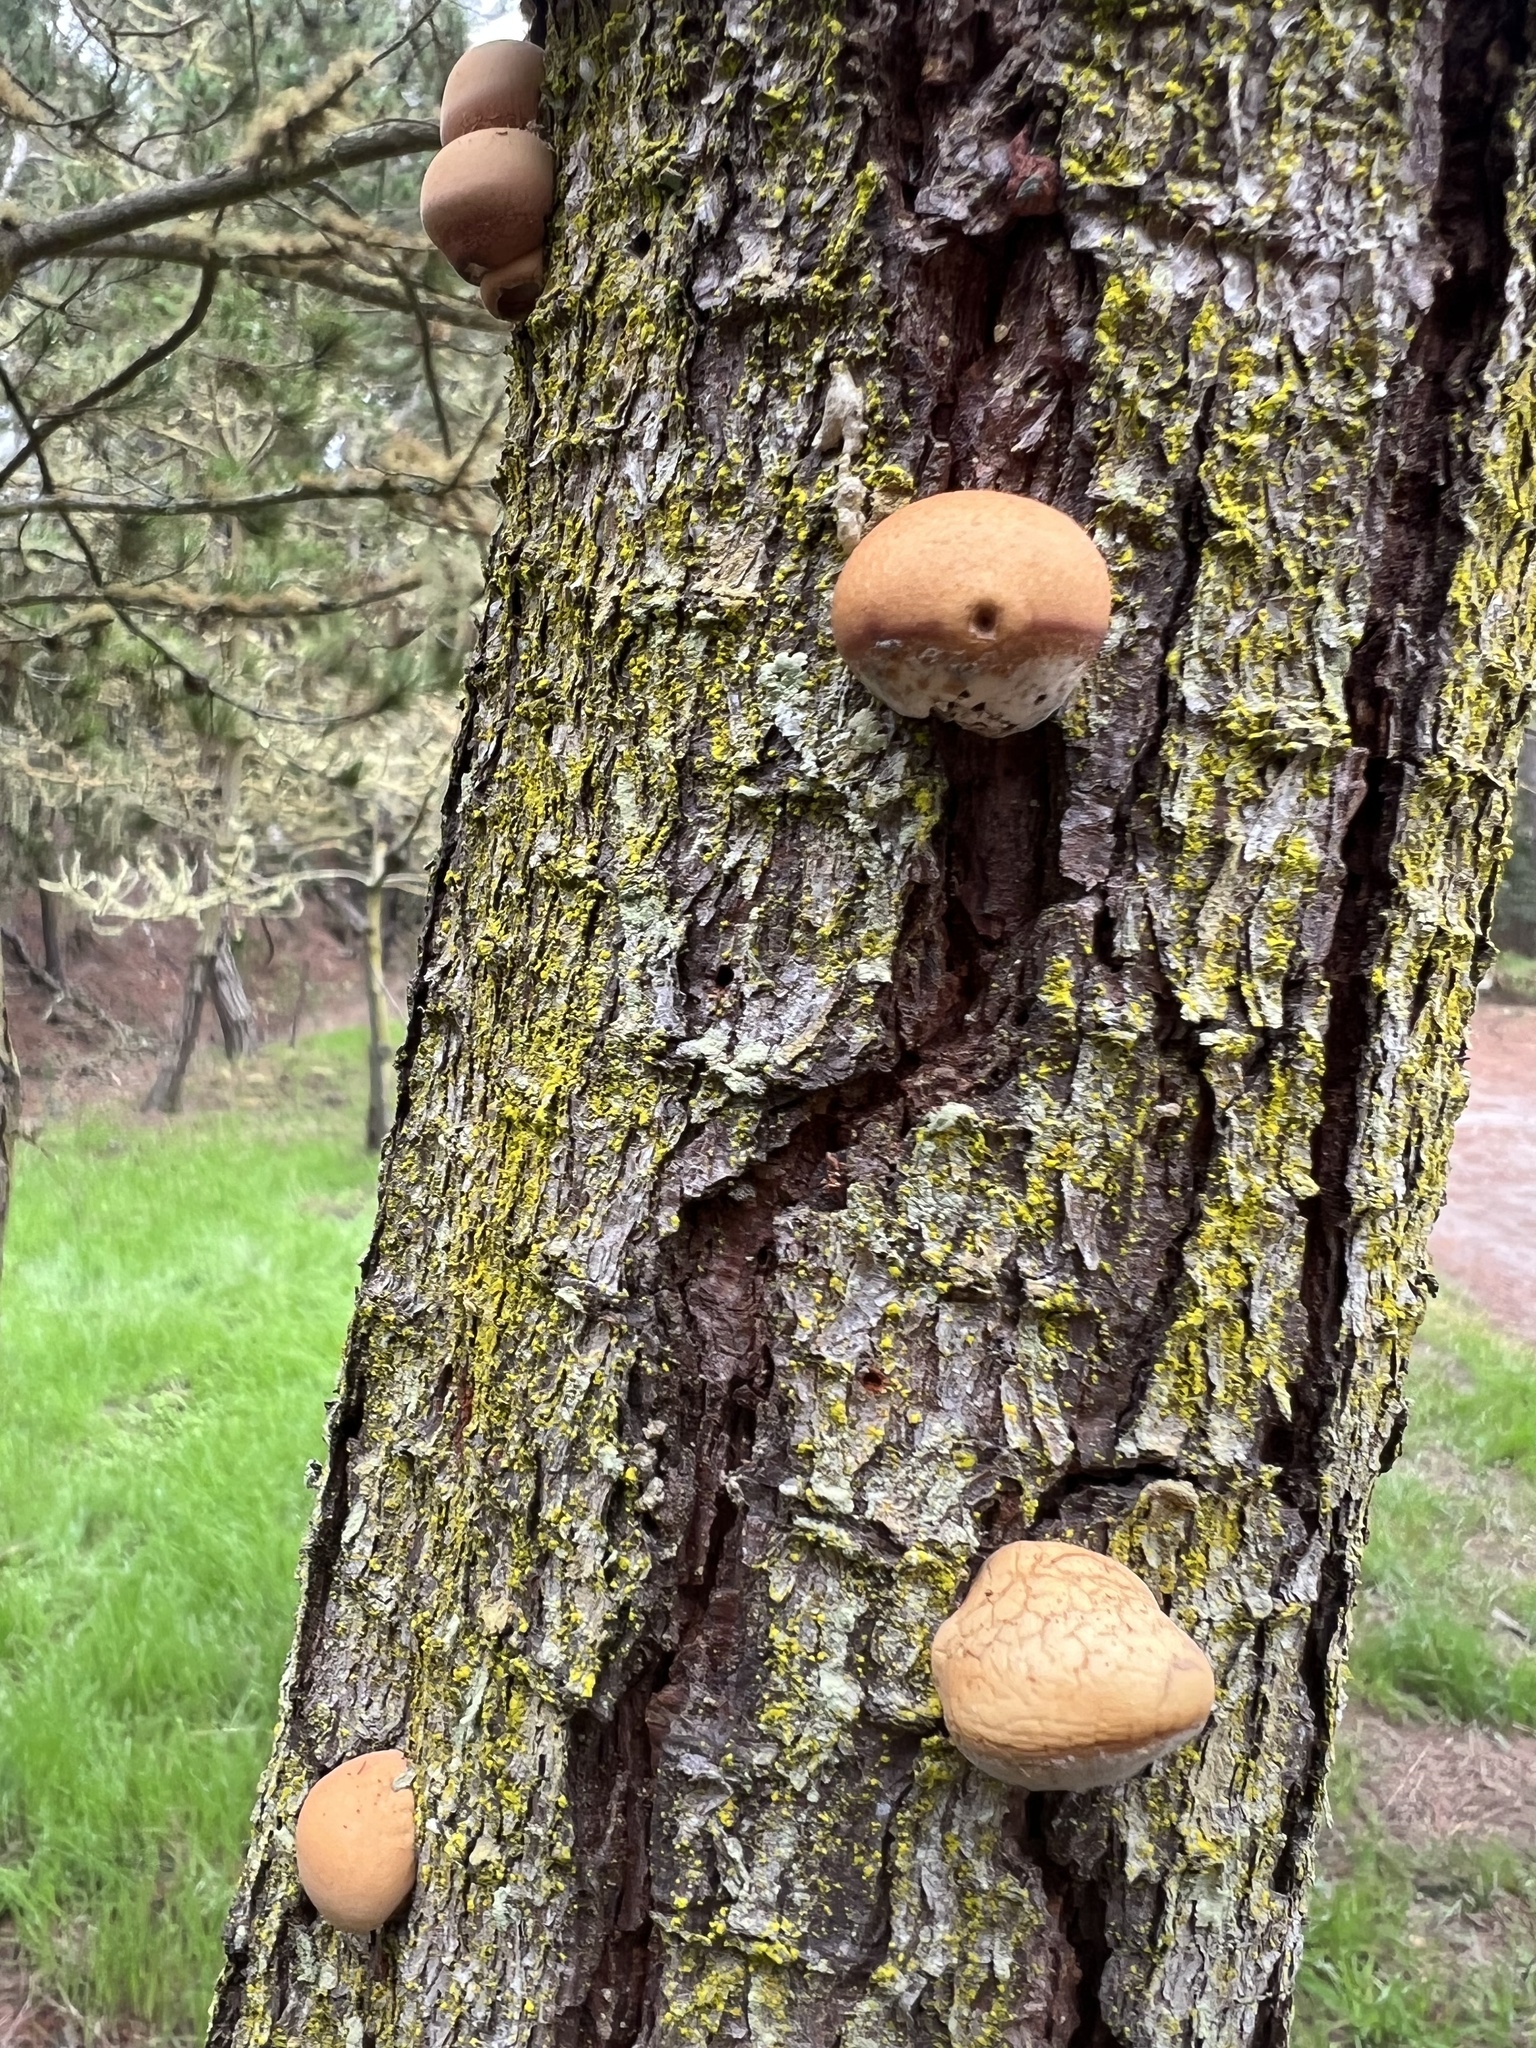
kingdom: Fungi
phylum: Basidiomycota
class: Agaricomycetes
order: Polyporales
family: Polyporaceae
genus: Cryptoporus
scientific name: Cryptoporus volvatus
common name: Veiled polypore
